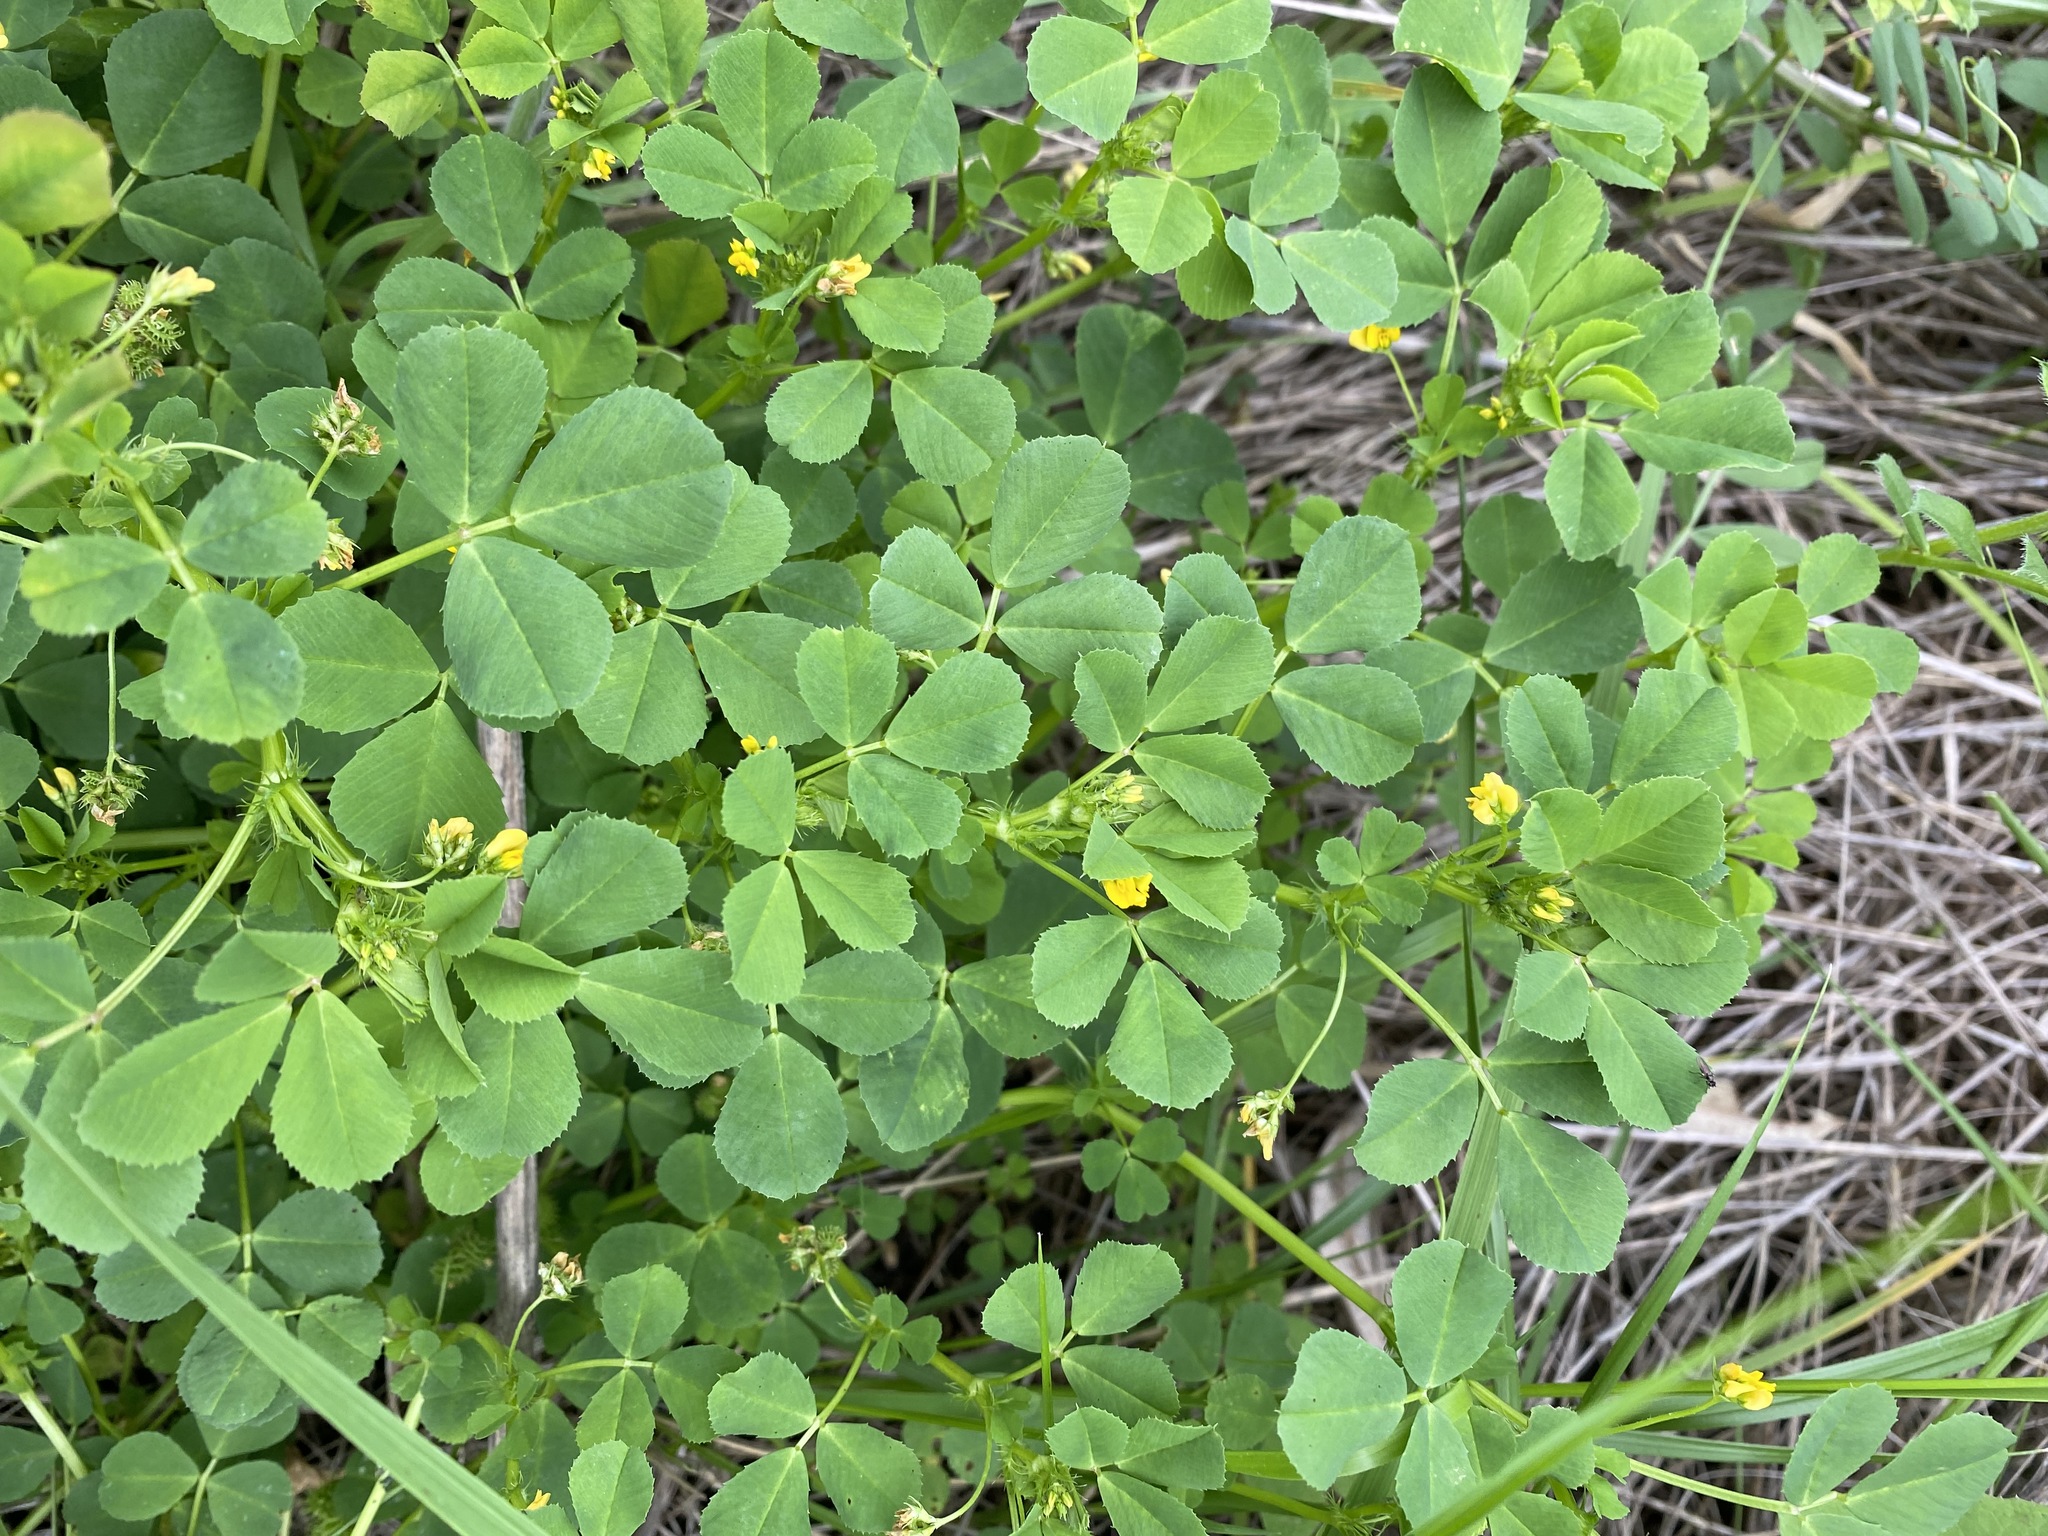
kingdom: Plantae
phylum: Tracheophyta
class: Magnoliopsida
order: Fabales
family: Fabaceae
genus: Medicago
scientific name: Medicago polymorpha
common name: Burclover
